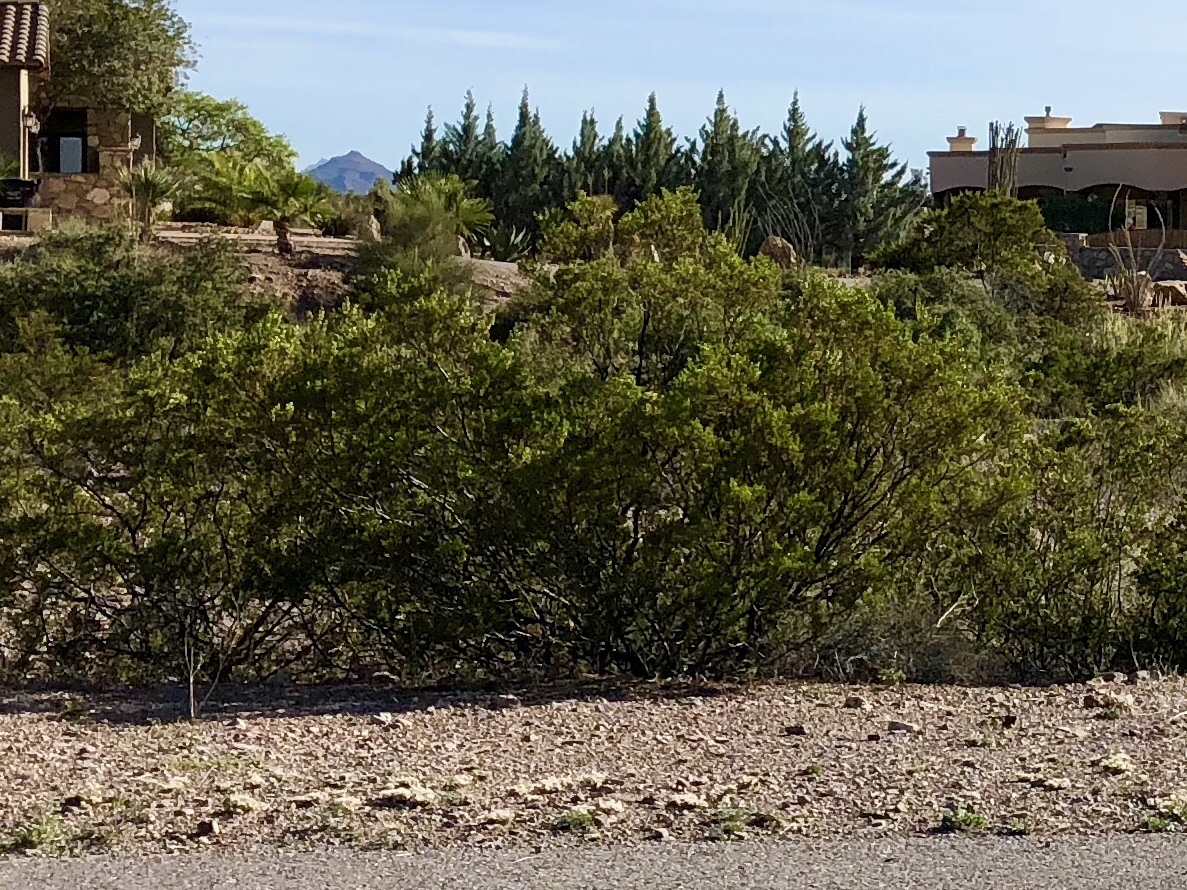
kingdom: Plantae
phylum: Tracheophyta
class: Magnoliopsida
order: Zygophyllales
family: Zygophyllaceae
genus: Larrea
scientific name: Larrea tridentata
